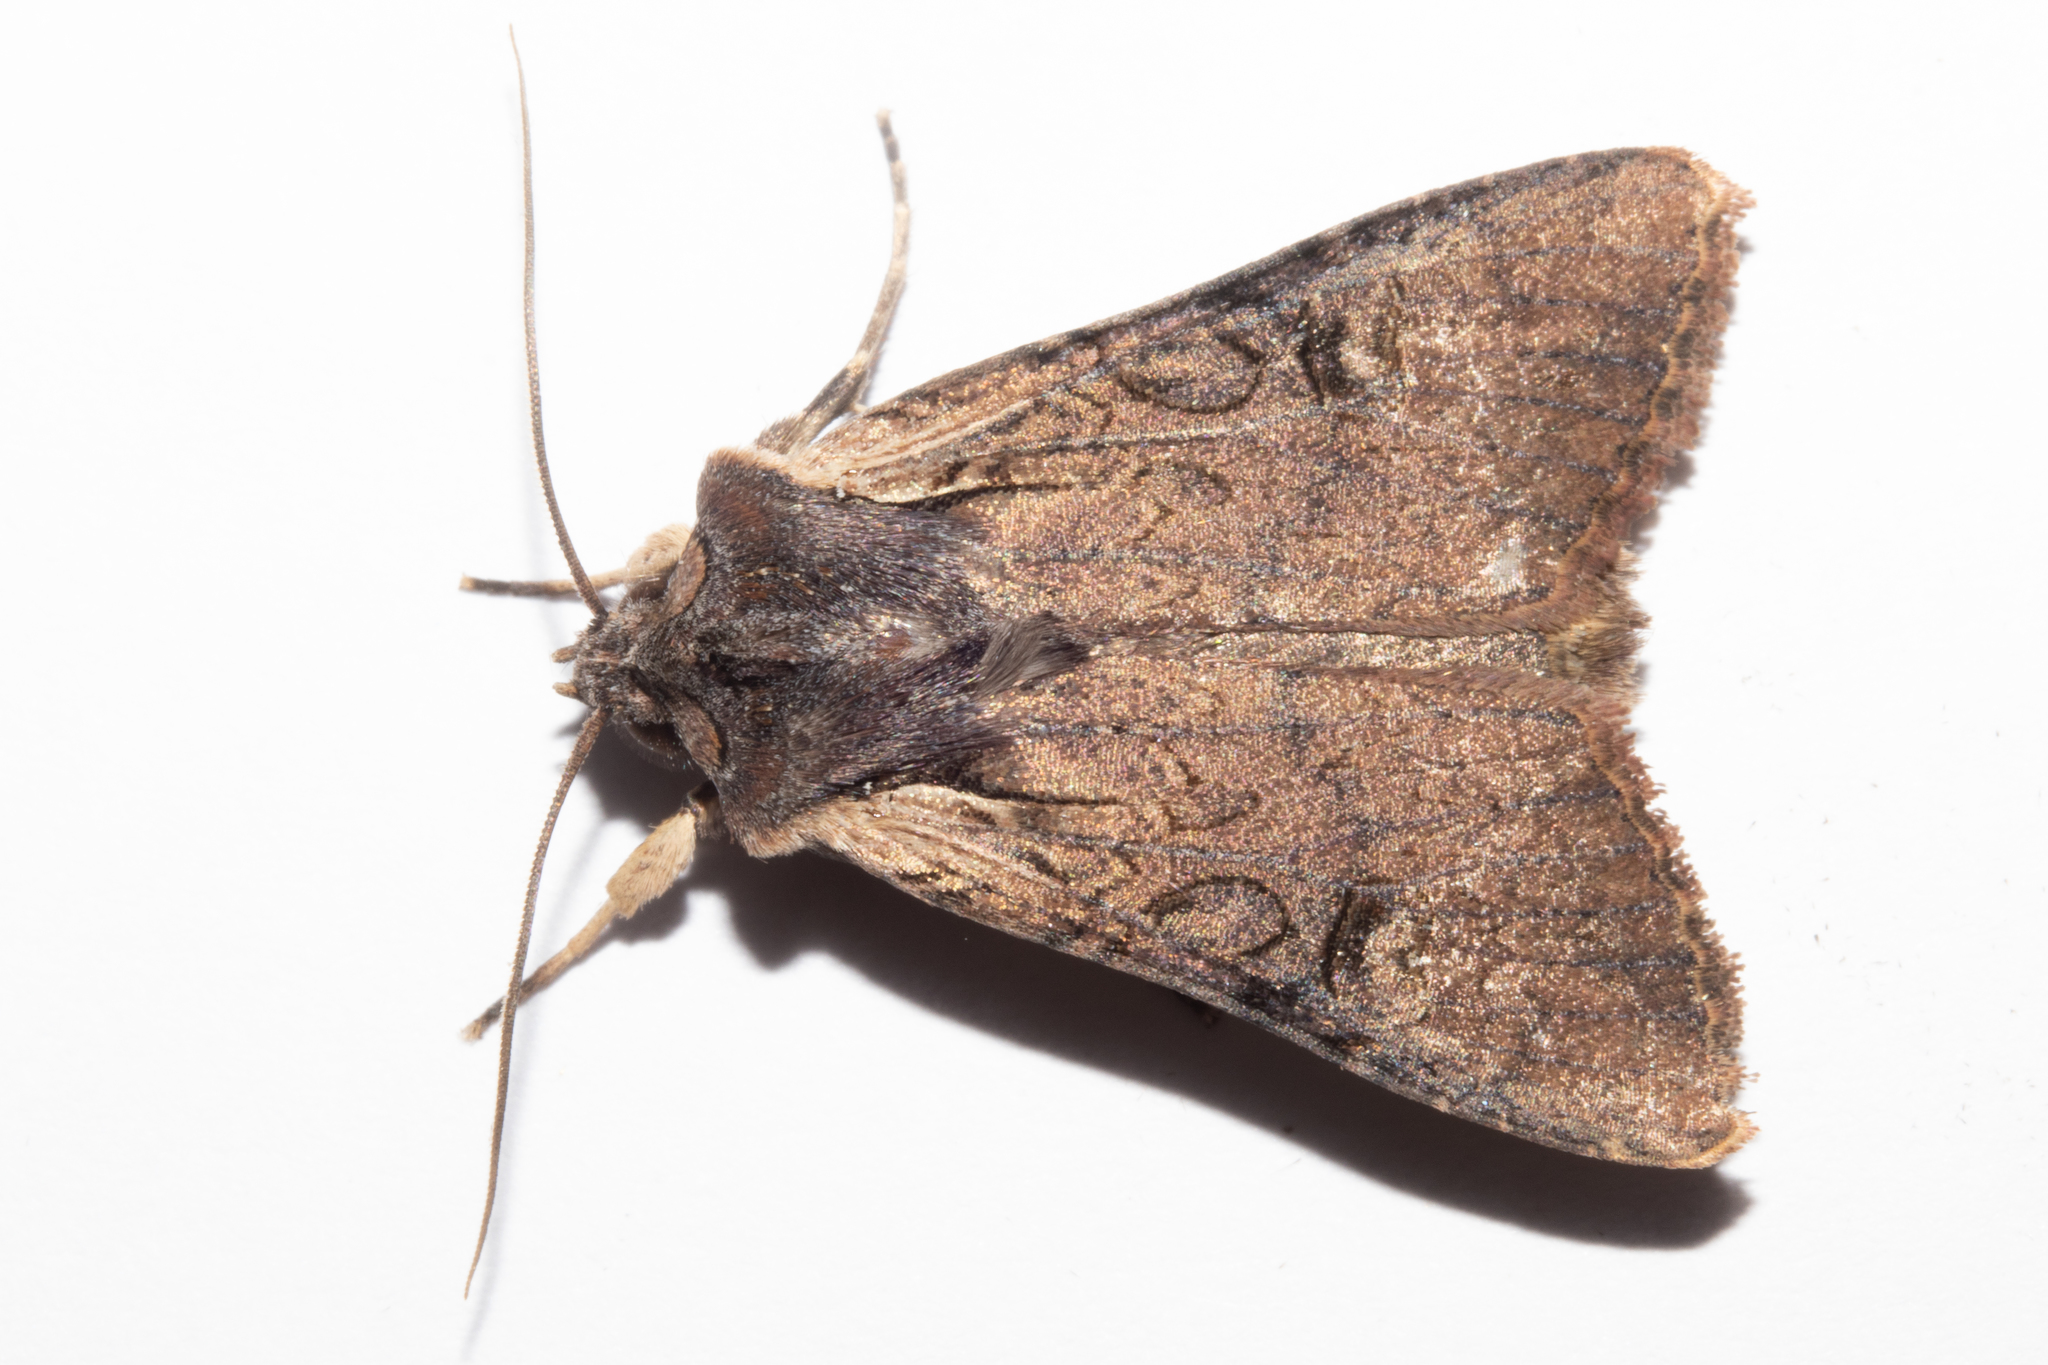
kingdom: Animalia
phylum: Arthropoda
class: Insecta
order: Lepidoptera
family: Noctuidae
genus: Ichneutica
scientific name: Ichneutica omoplaca
